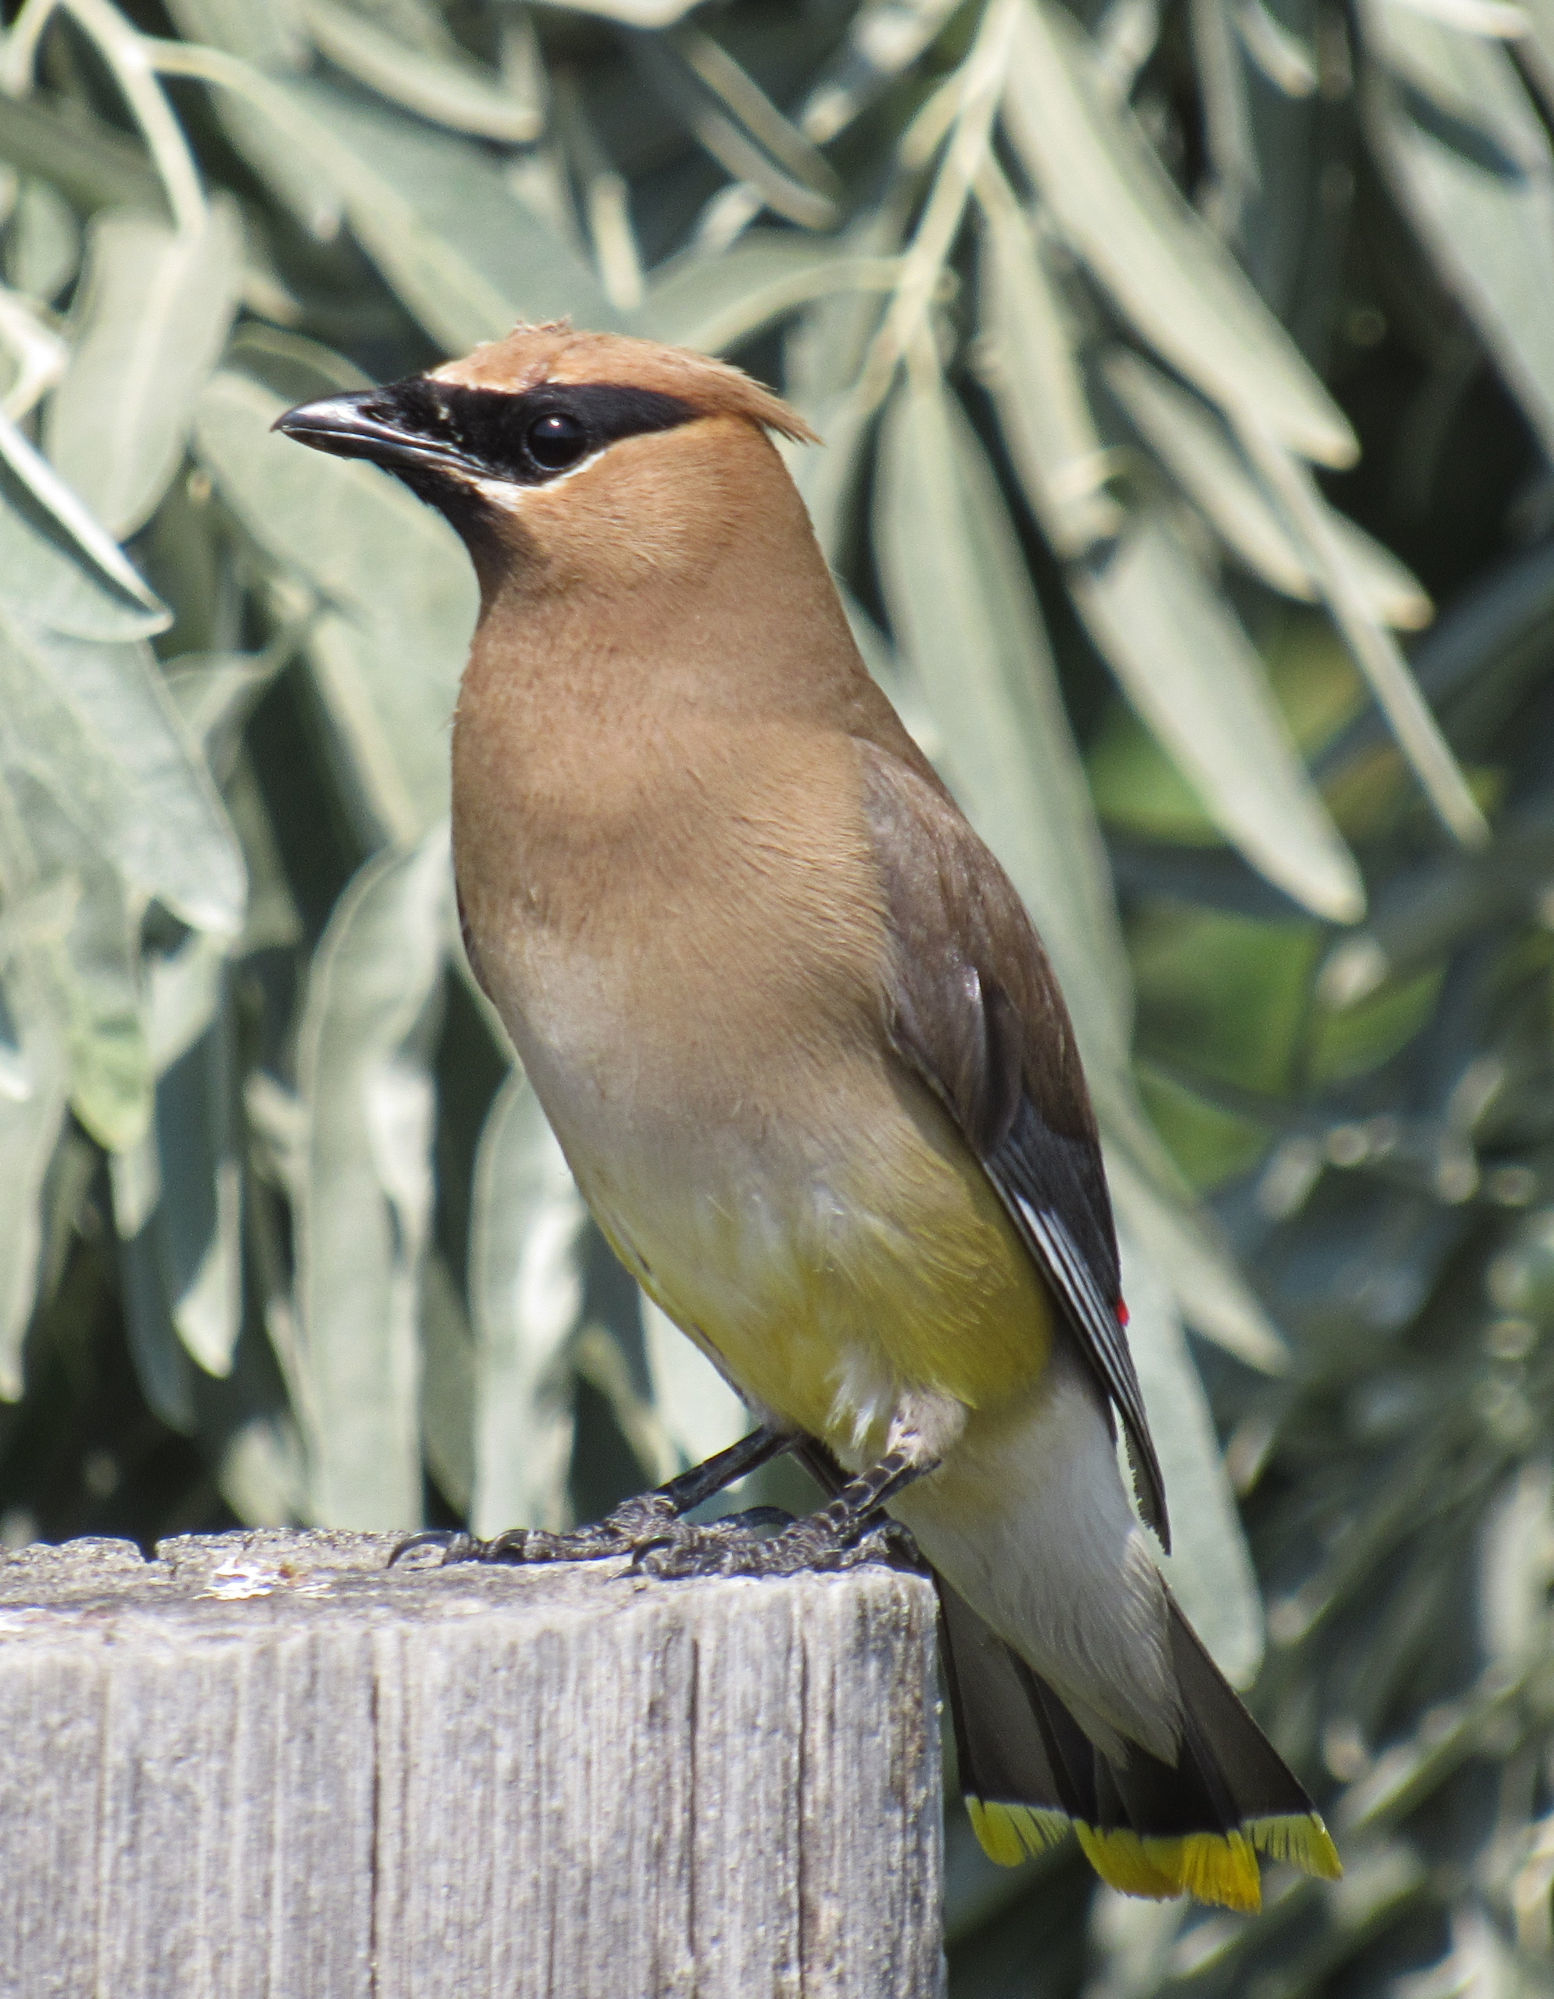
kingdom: Animalia
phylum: Chordata
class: Aves
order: Passeriformes
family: Bombycillidae
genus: Bombycilla
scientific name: Bombycilla cedrorum
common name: Cedar waxwing
